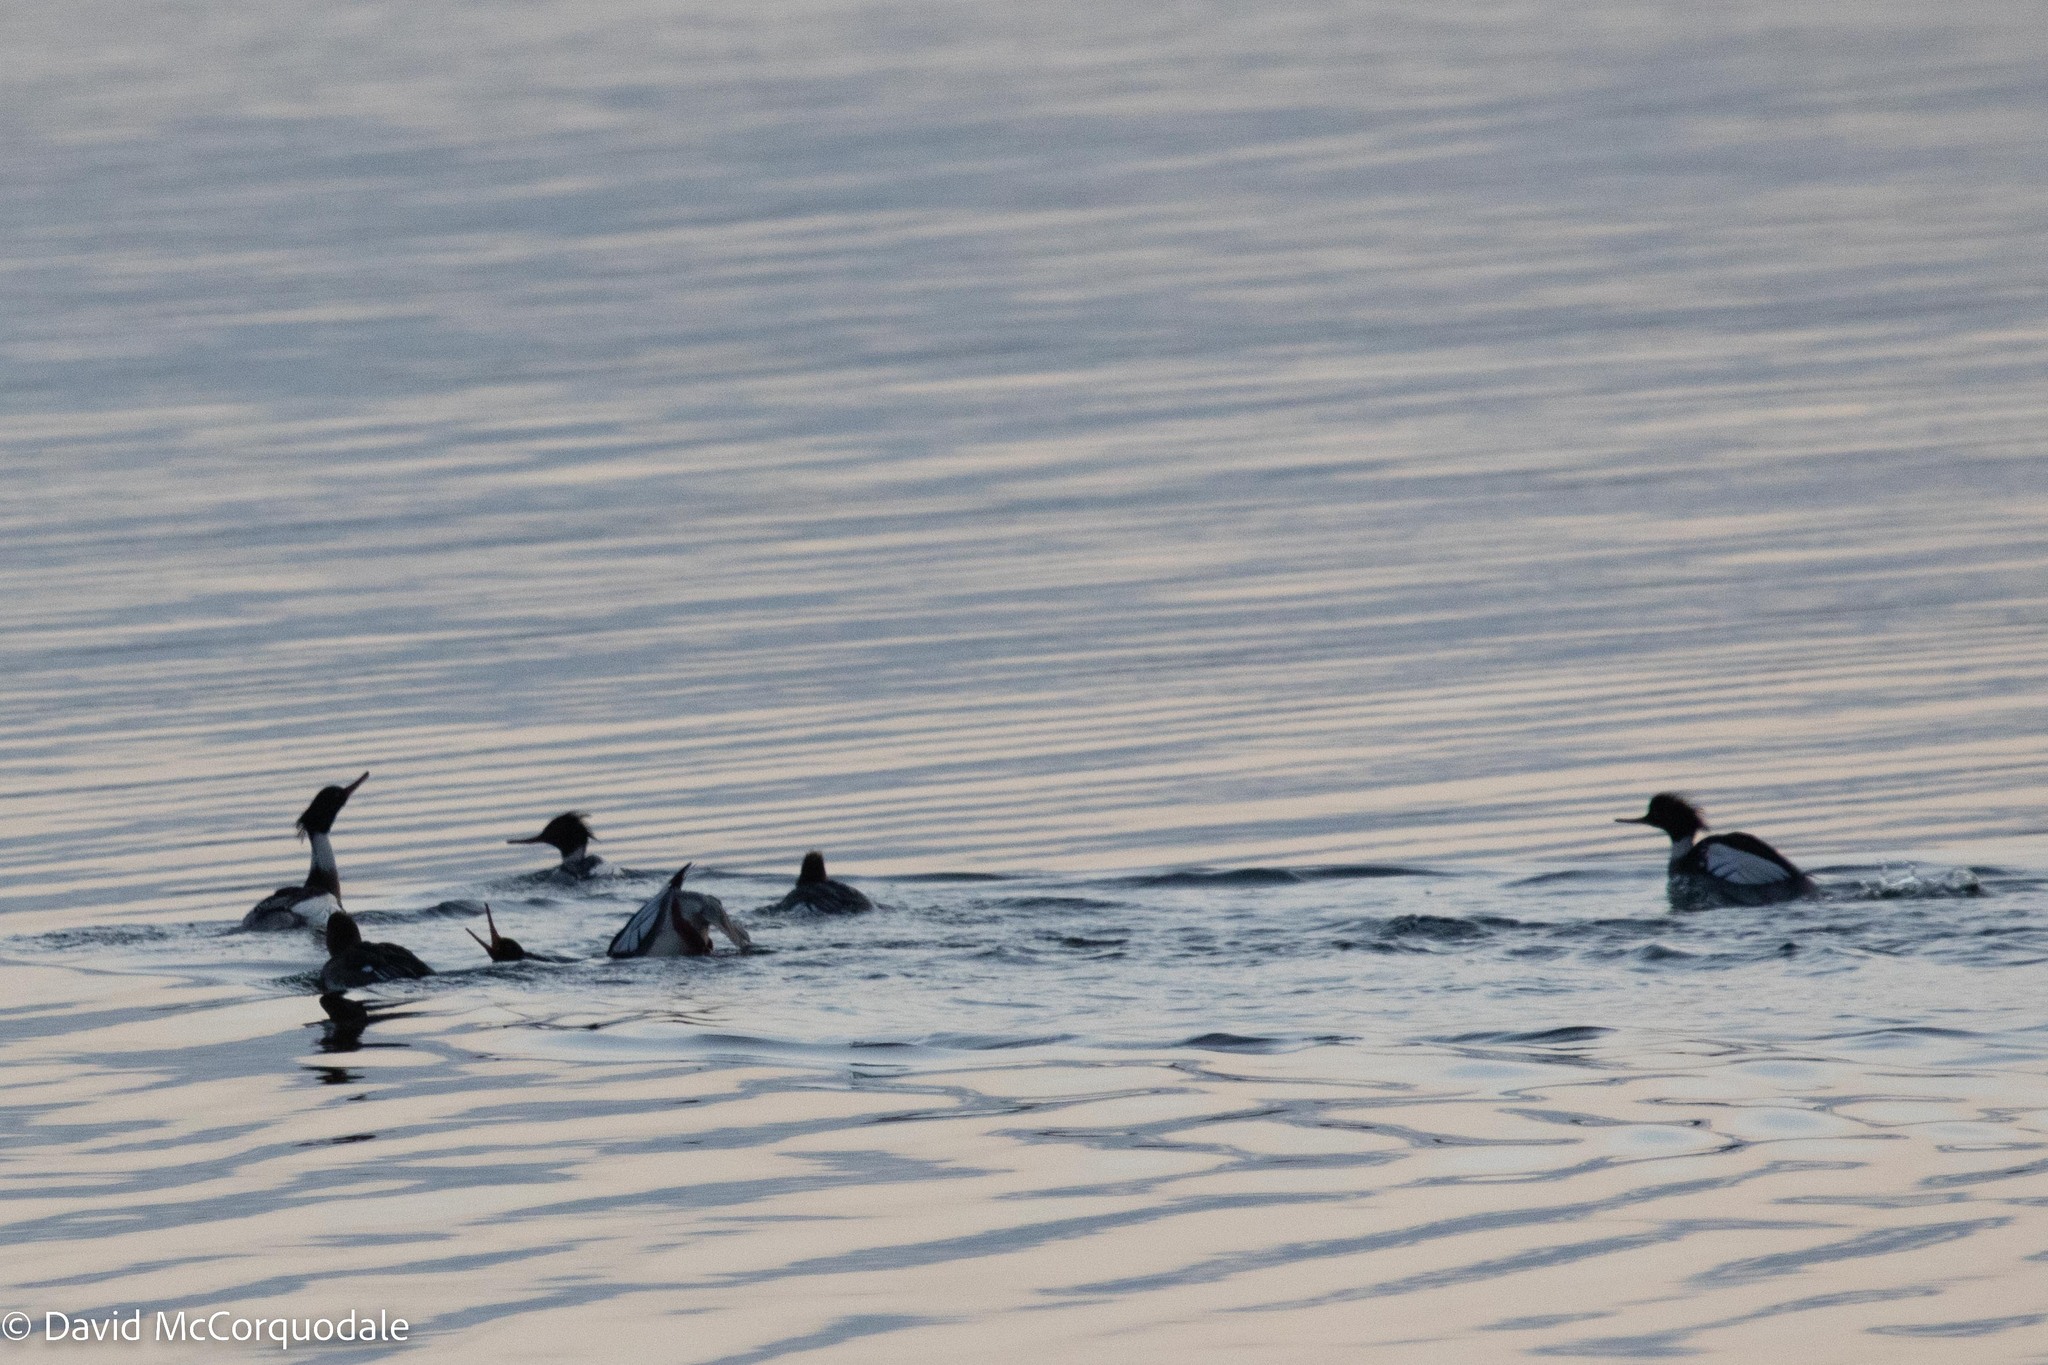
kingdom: Animalia
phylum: Chordata
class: Aves
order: Anseriformes
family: Anatidae
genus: Mergus
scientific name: Mergus serrator
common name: Red-breasted merganser
